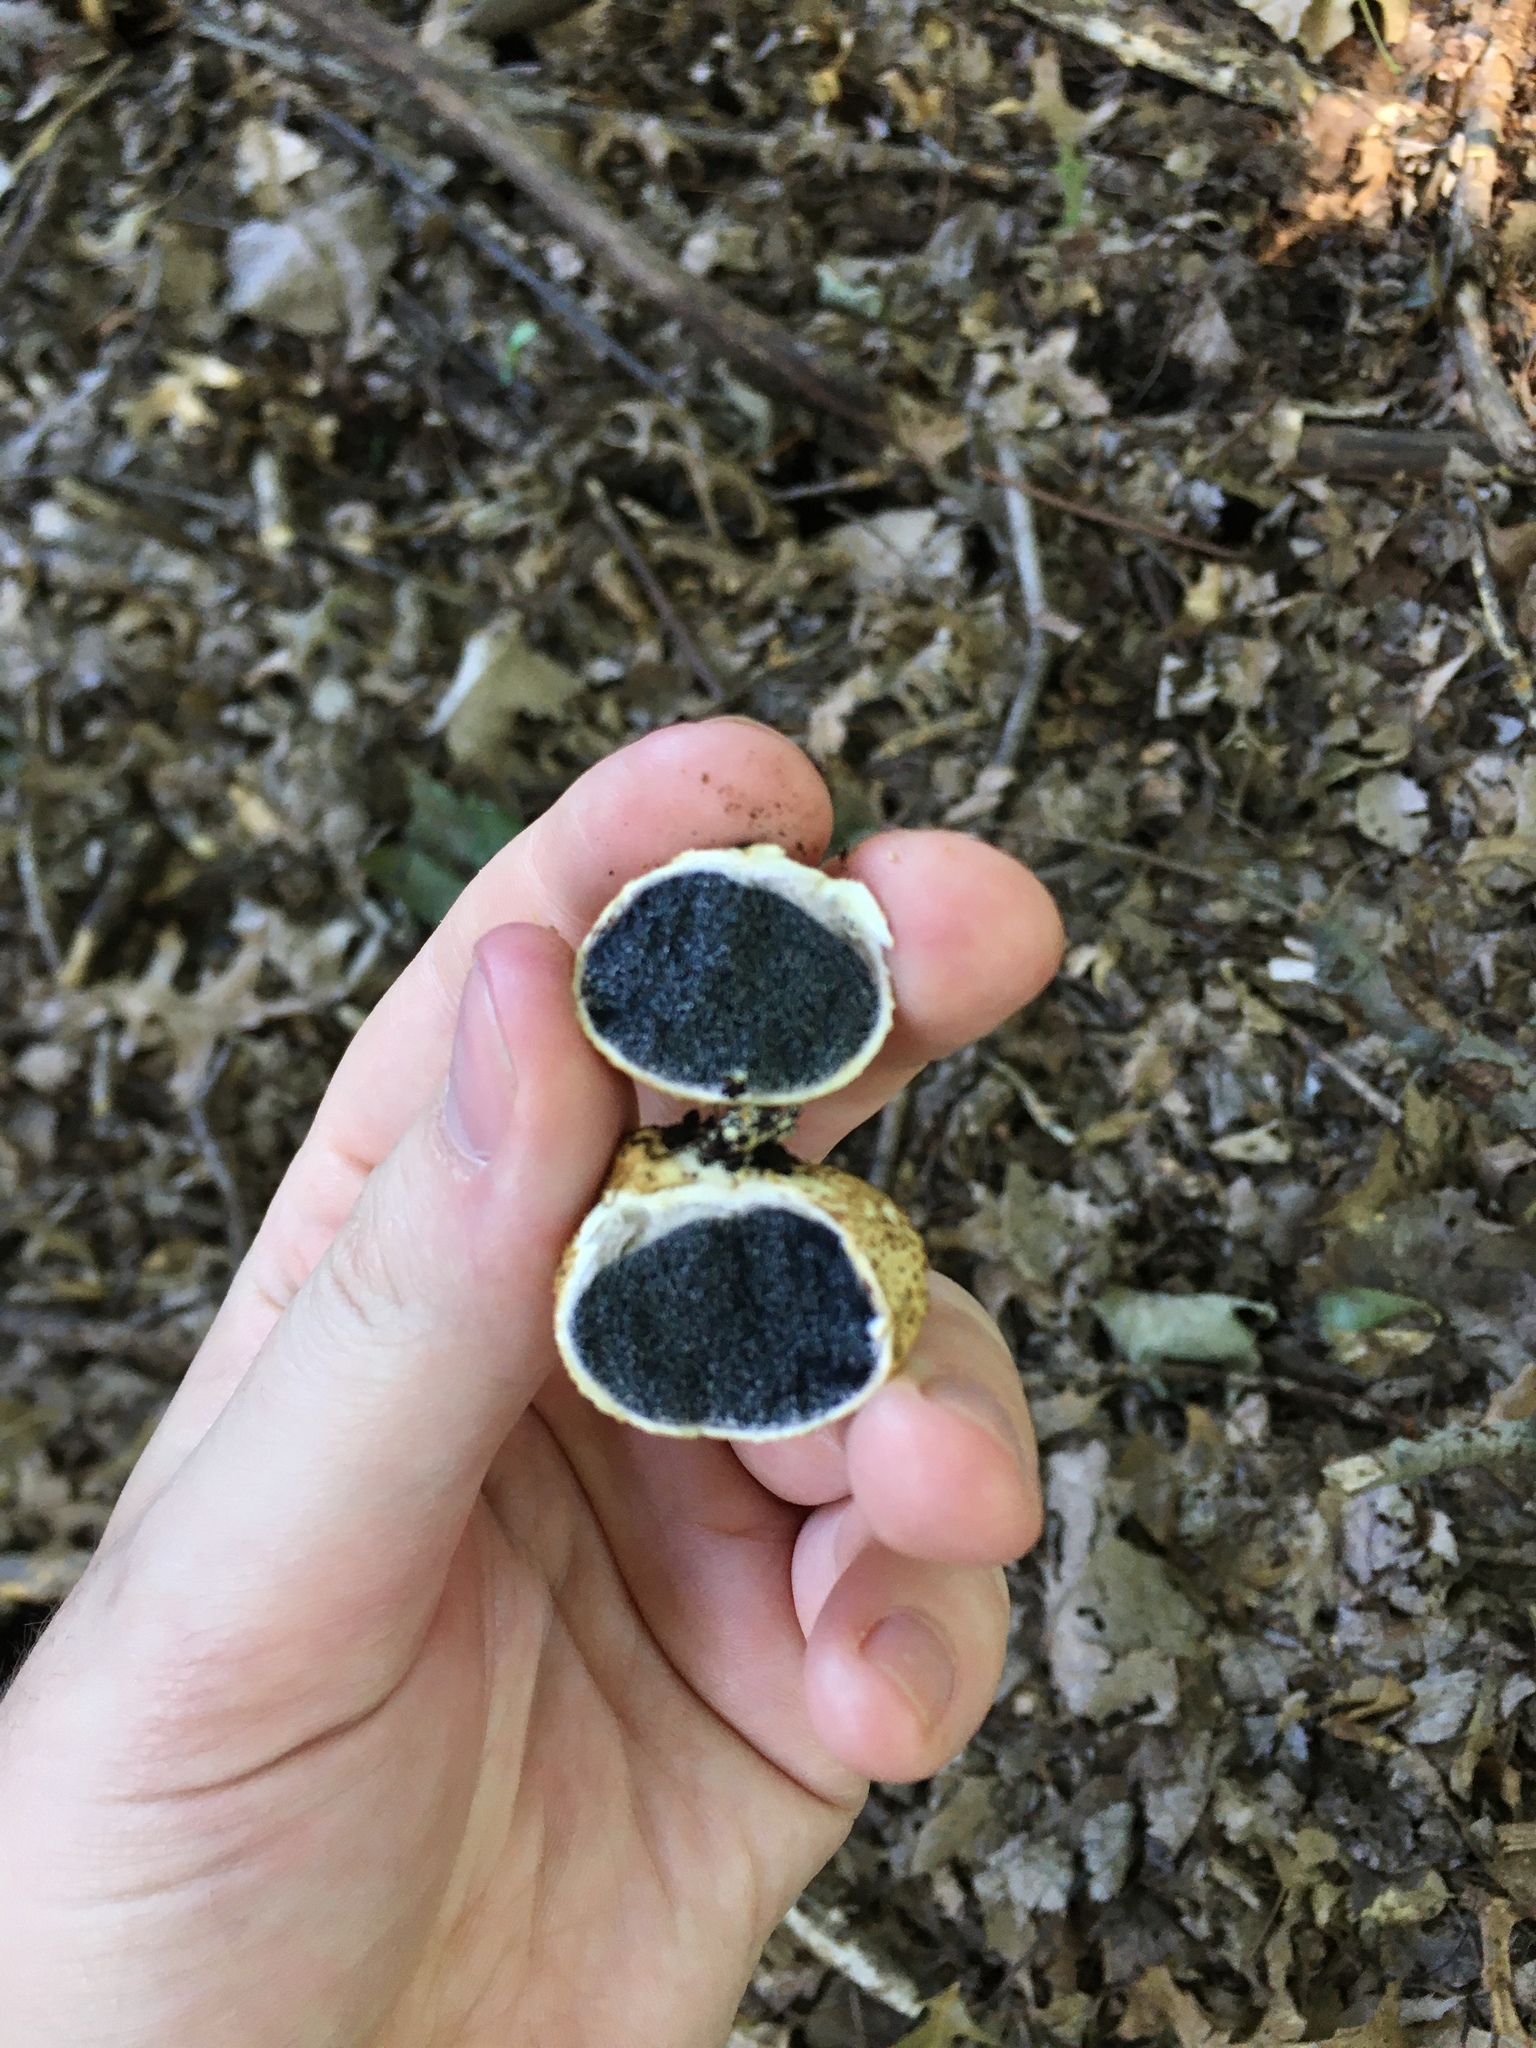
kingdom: Fungi
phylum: Basidiomycota
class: Agaricomycetes
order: Boletales
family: Sclerodermataceae
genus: Scleroderma
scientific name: Scleroderma citrinum
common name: Common earthball
